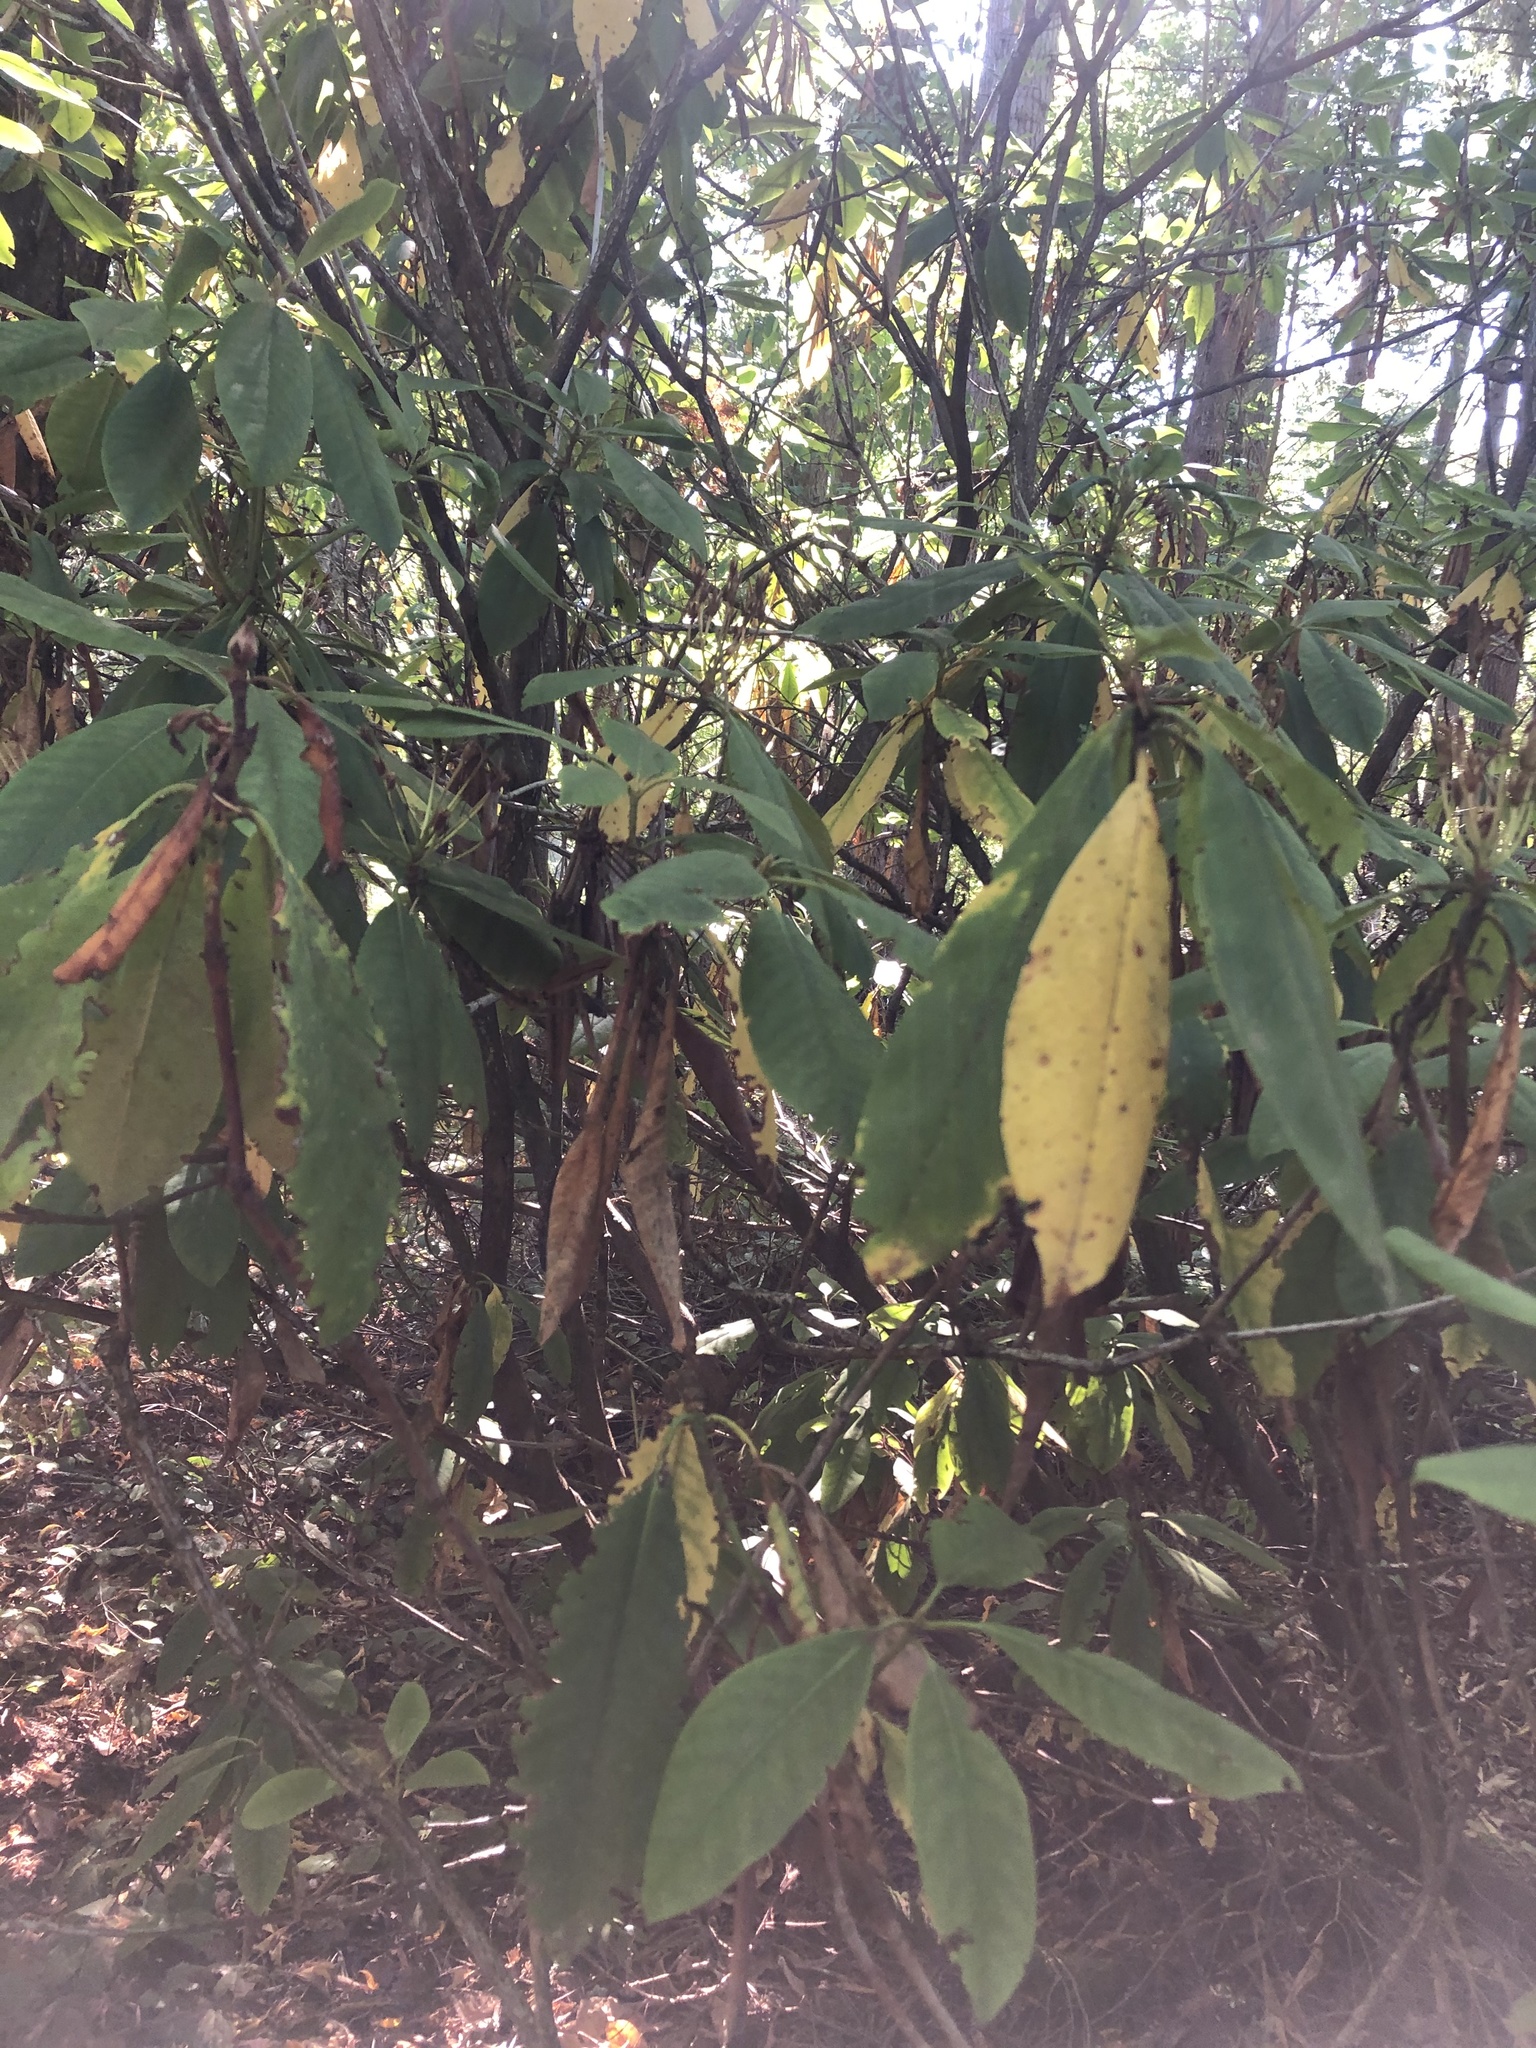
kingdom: Plantae
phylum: Tracheophyta
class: Magnoliopsida
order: Ericales
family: Ericaceae
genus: Rhododendron
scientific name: Rhododendron macrophyllum
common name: California rose bay
